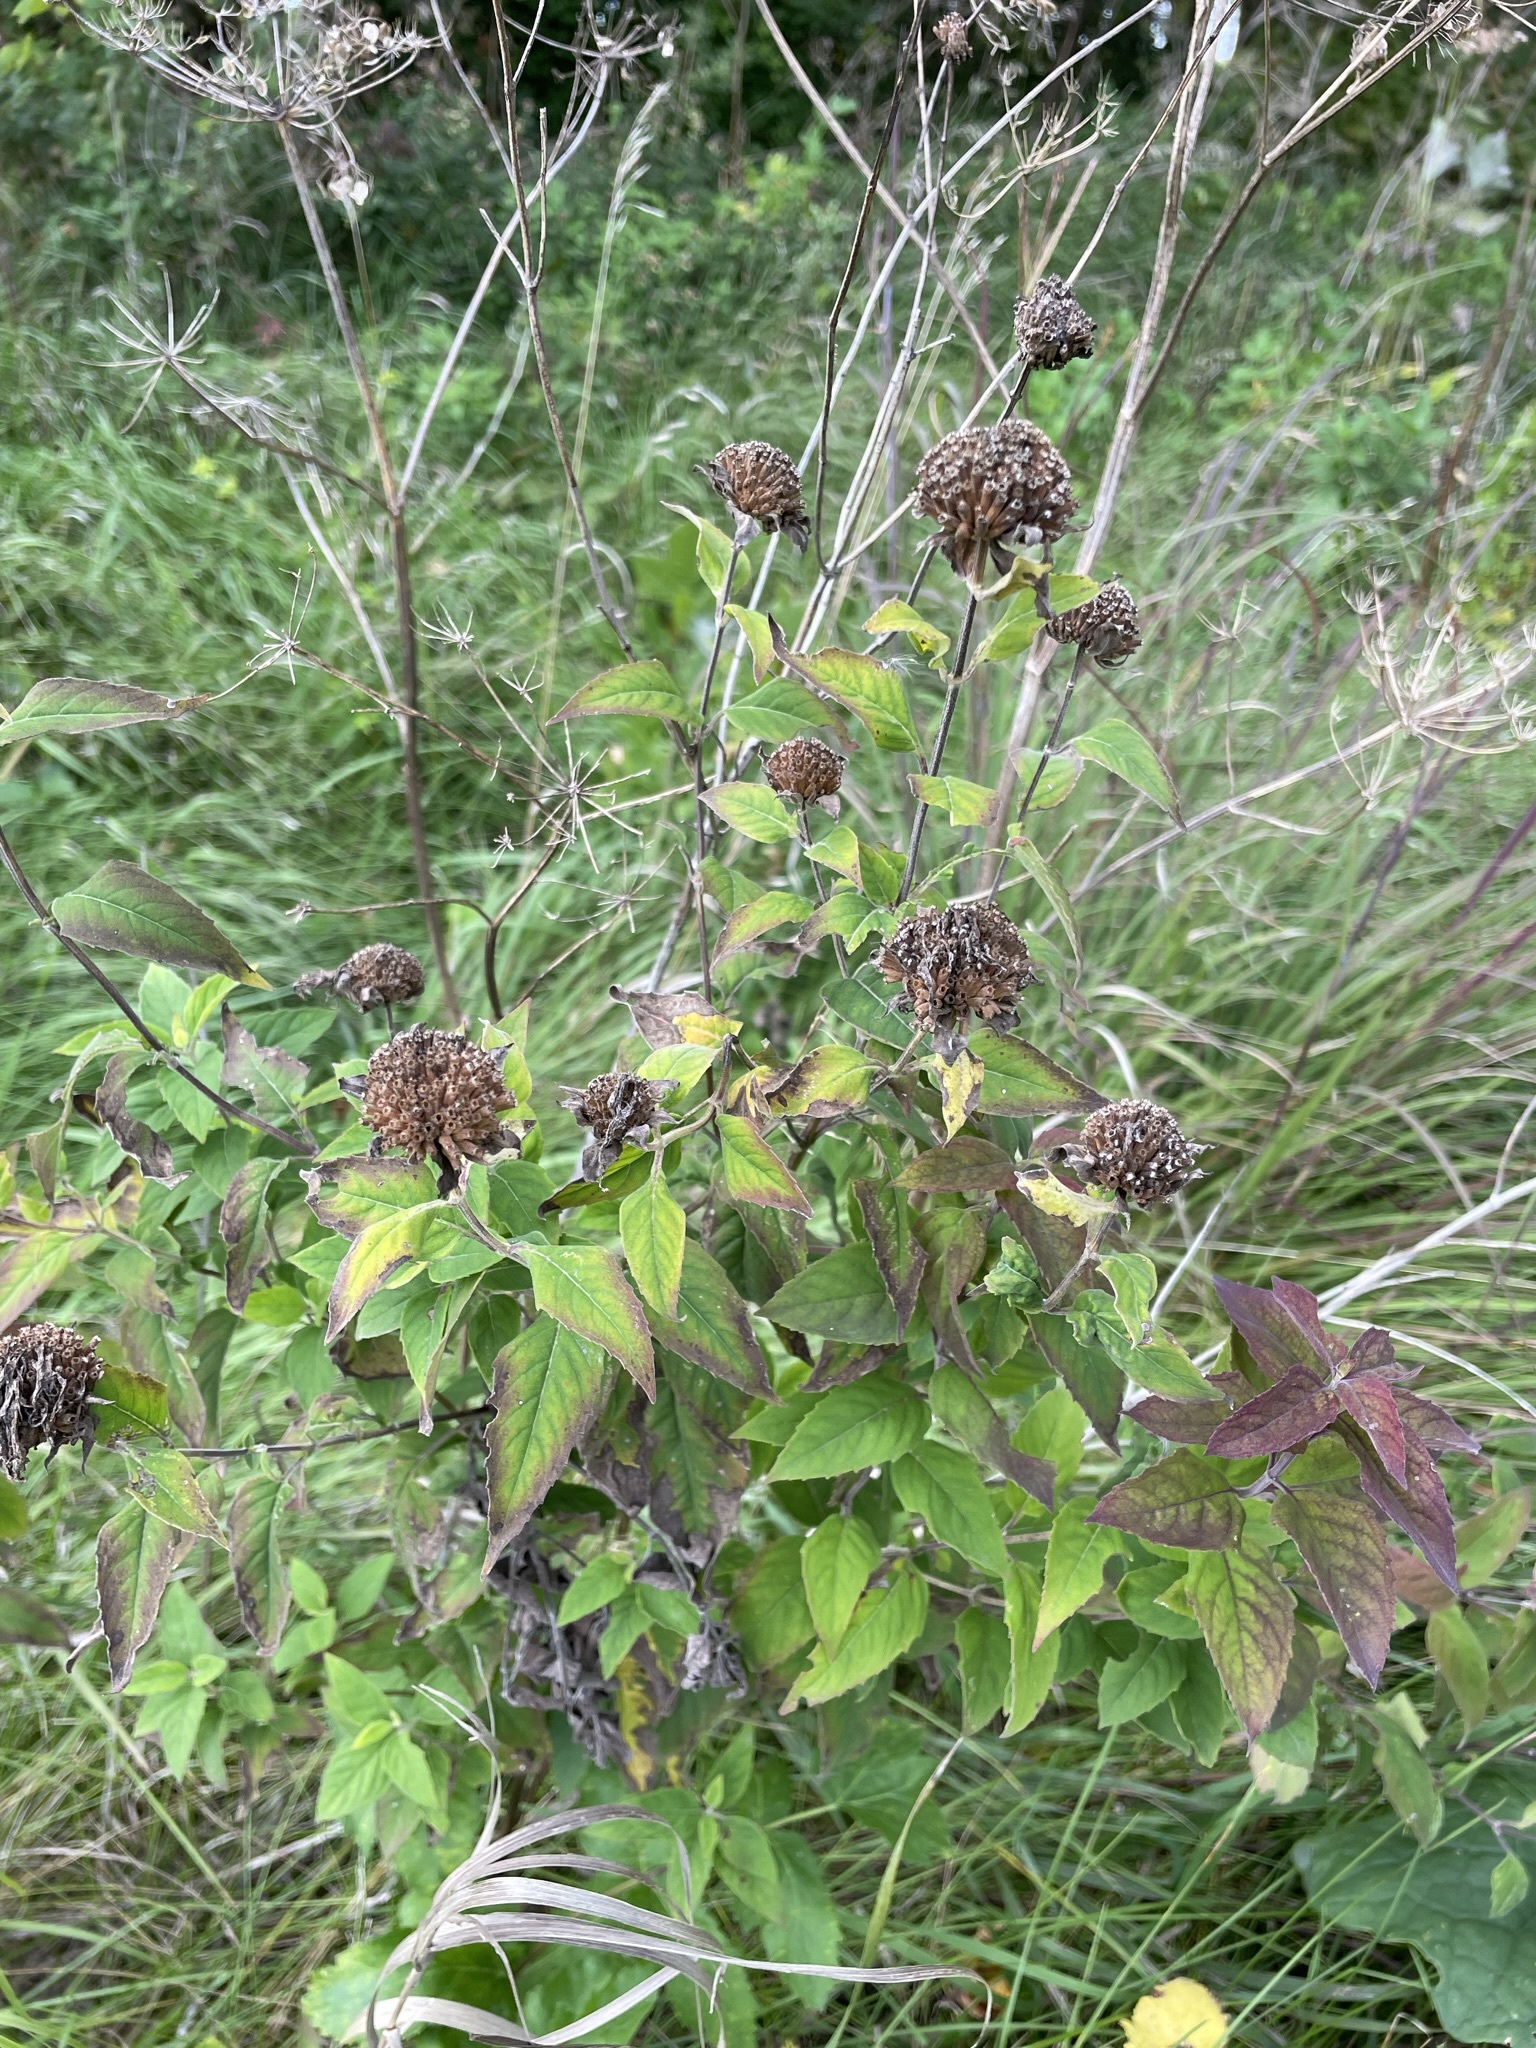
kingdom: Plantae
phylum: Tracheophyta
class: Magnoliopsida
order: Lamiales
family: Lamiaceae
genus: Monarda
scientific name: Monarda fistulosa
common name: Purple beebalm
